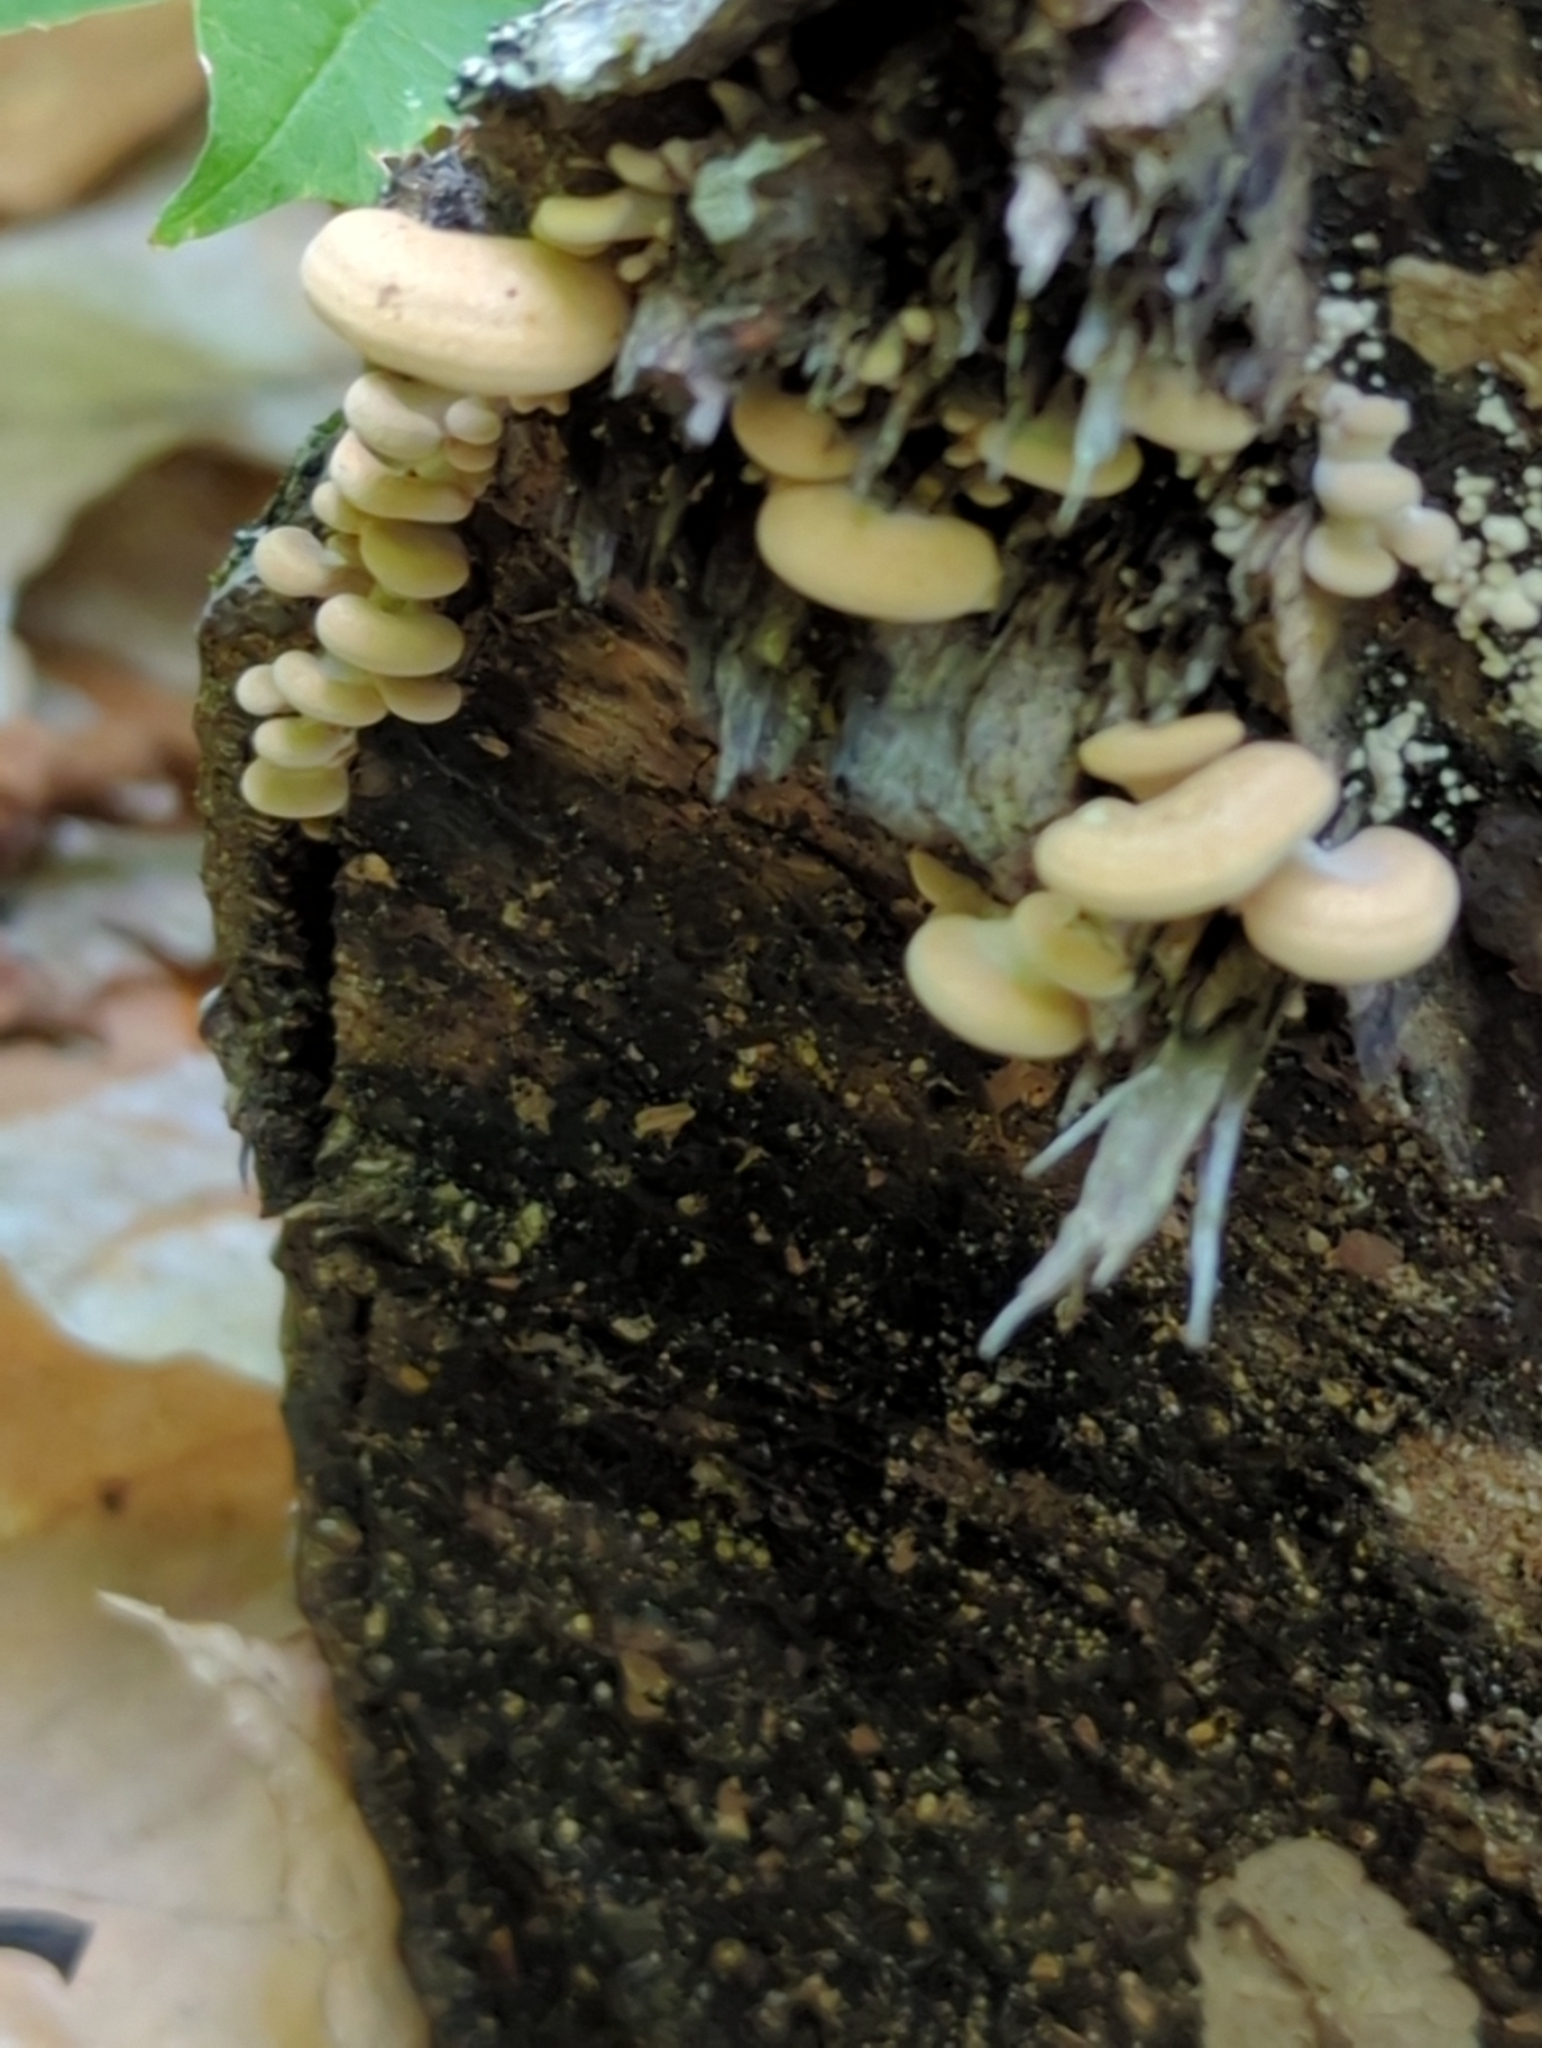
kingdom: Fungi
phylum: Basidiomycota
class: Agaricomycetes
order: Agaricales
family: Mycenaceae
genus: Panellus
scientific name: Panellus stipticus
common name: Bitter oysterling
